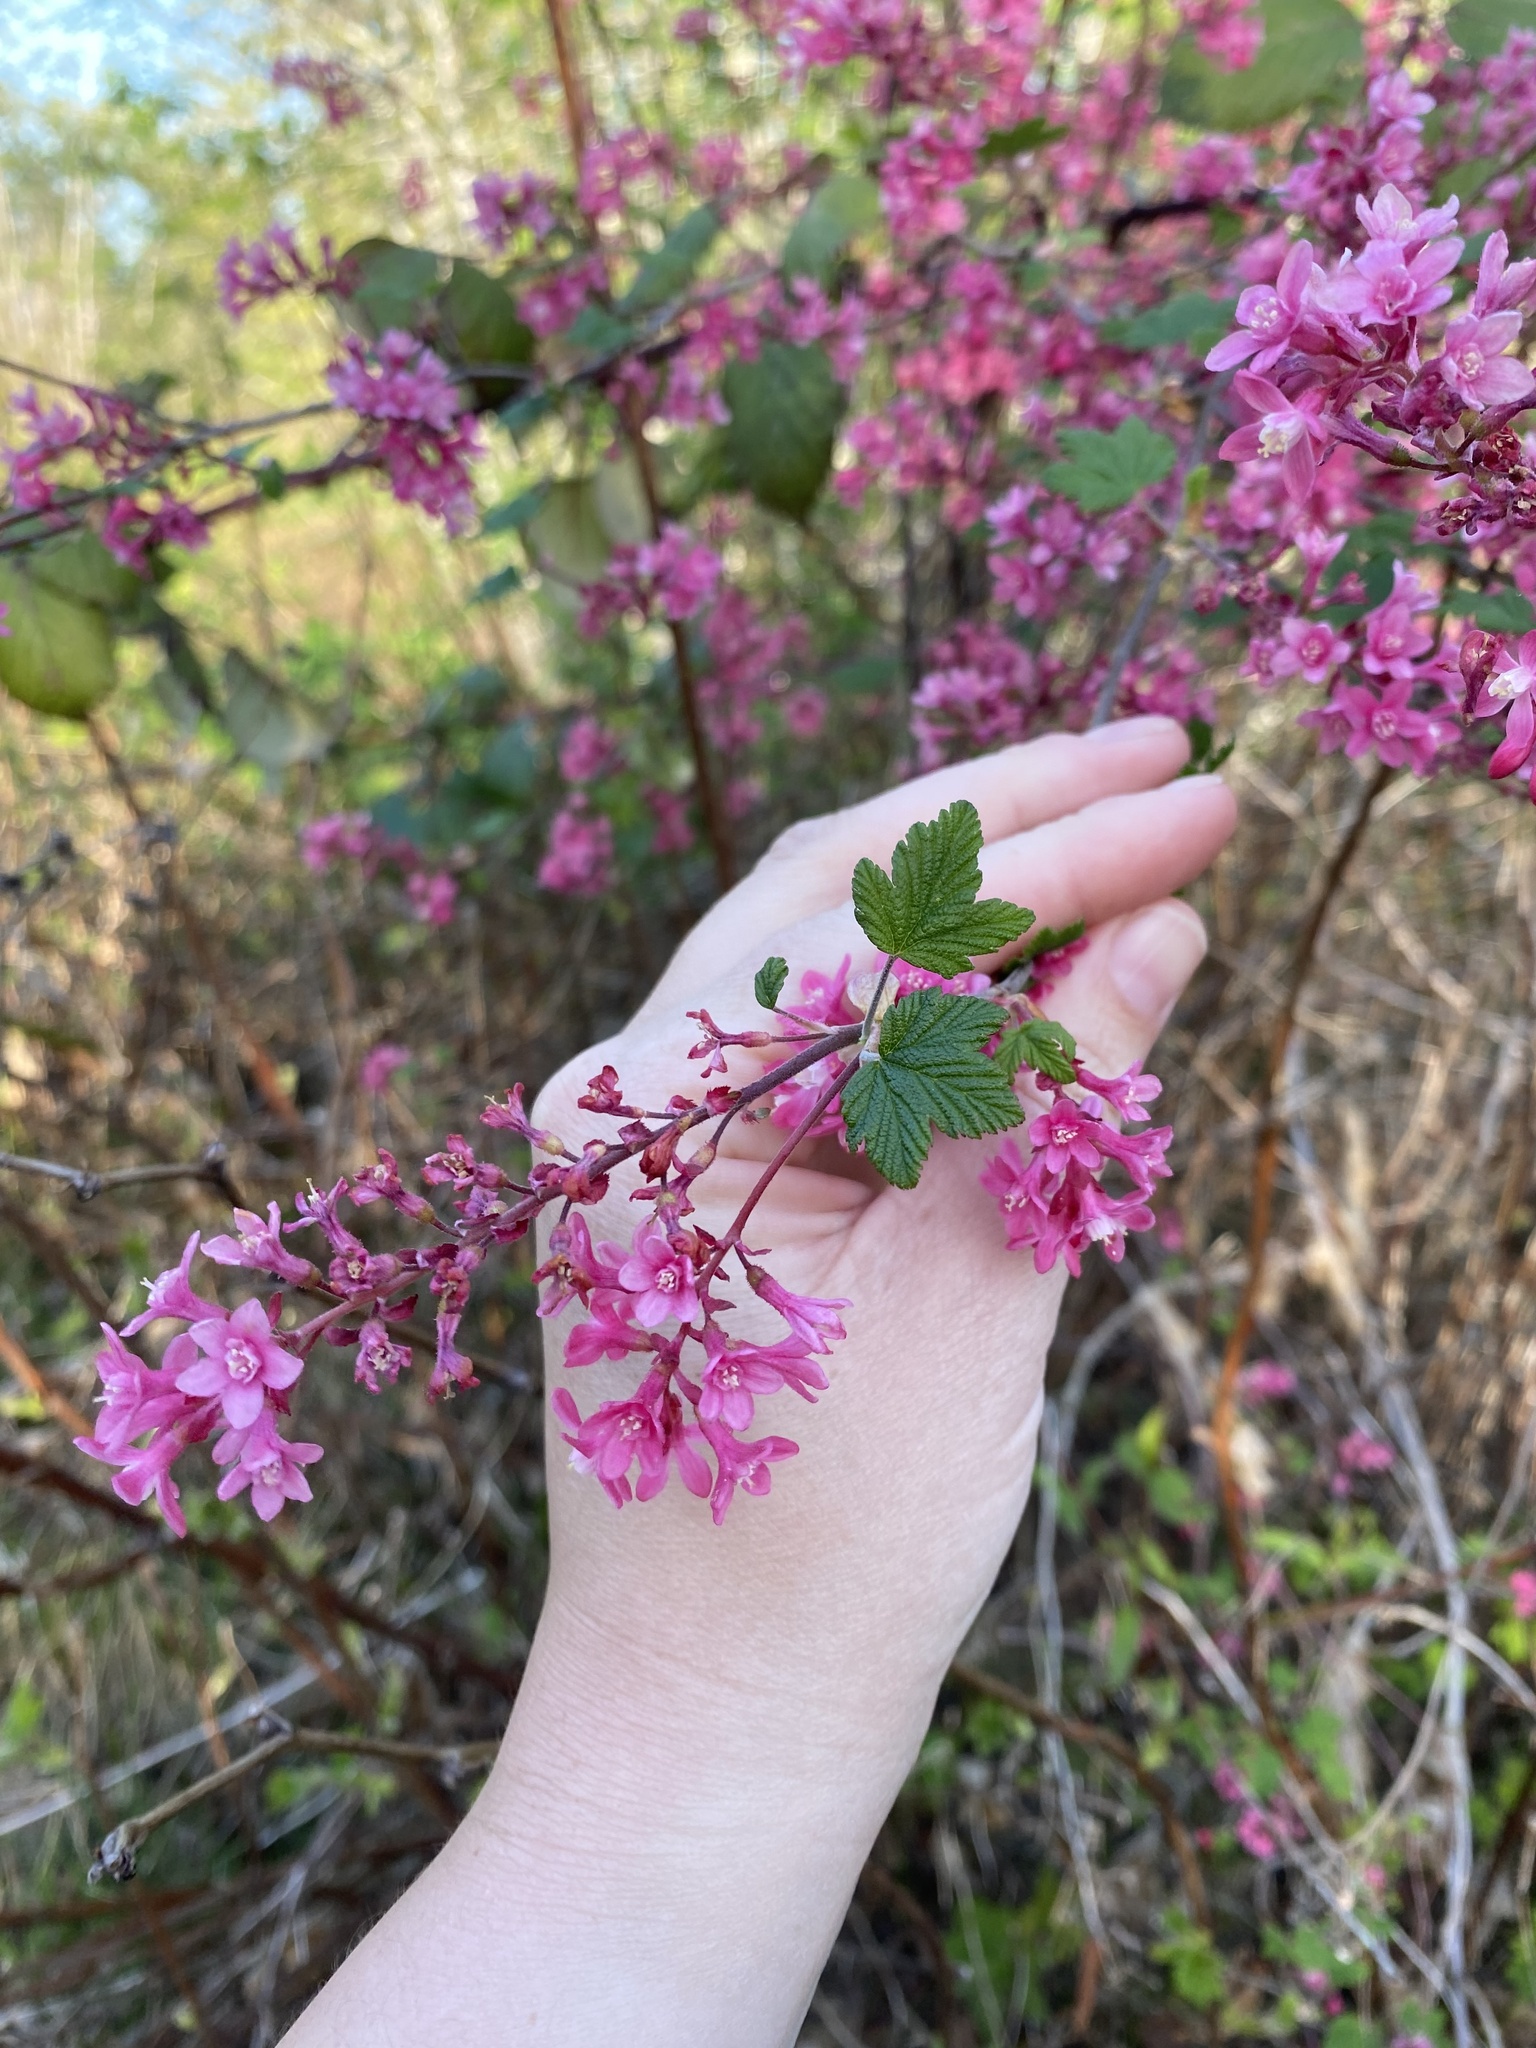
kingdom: Plantae
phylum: Tracheophyta
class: Magnoliopsida
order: Saxifragales
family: Grossulariaceae
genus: Ribes
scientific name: Ribes sanguineum
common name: Flowering currant
